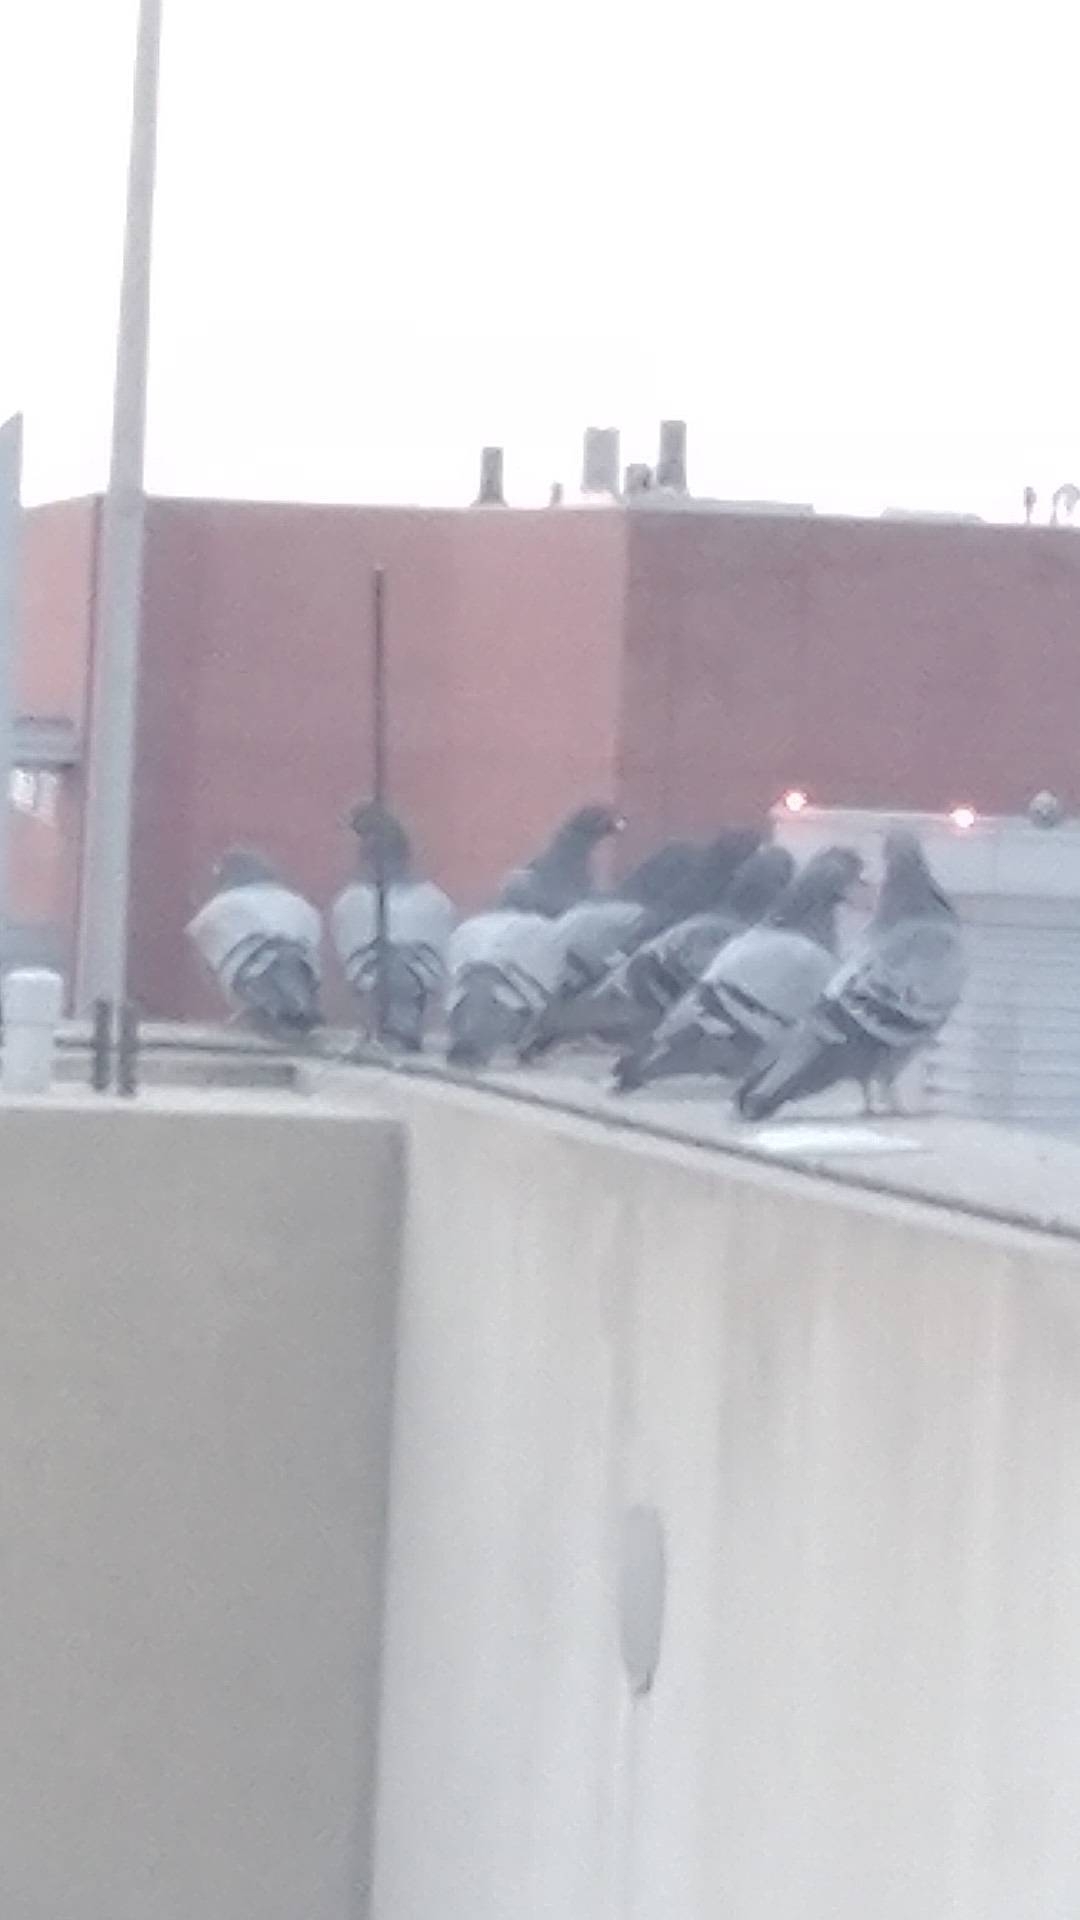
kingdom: Animalia
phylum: Chordata
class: Aves
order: Columbiformes
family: Columbidae
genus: Columba
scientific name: Columba livia
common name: Rock pigeon
